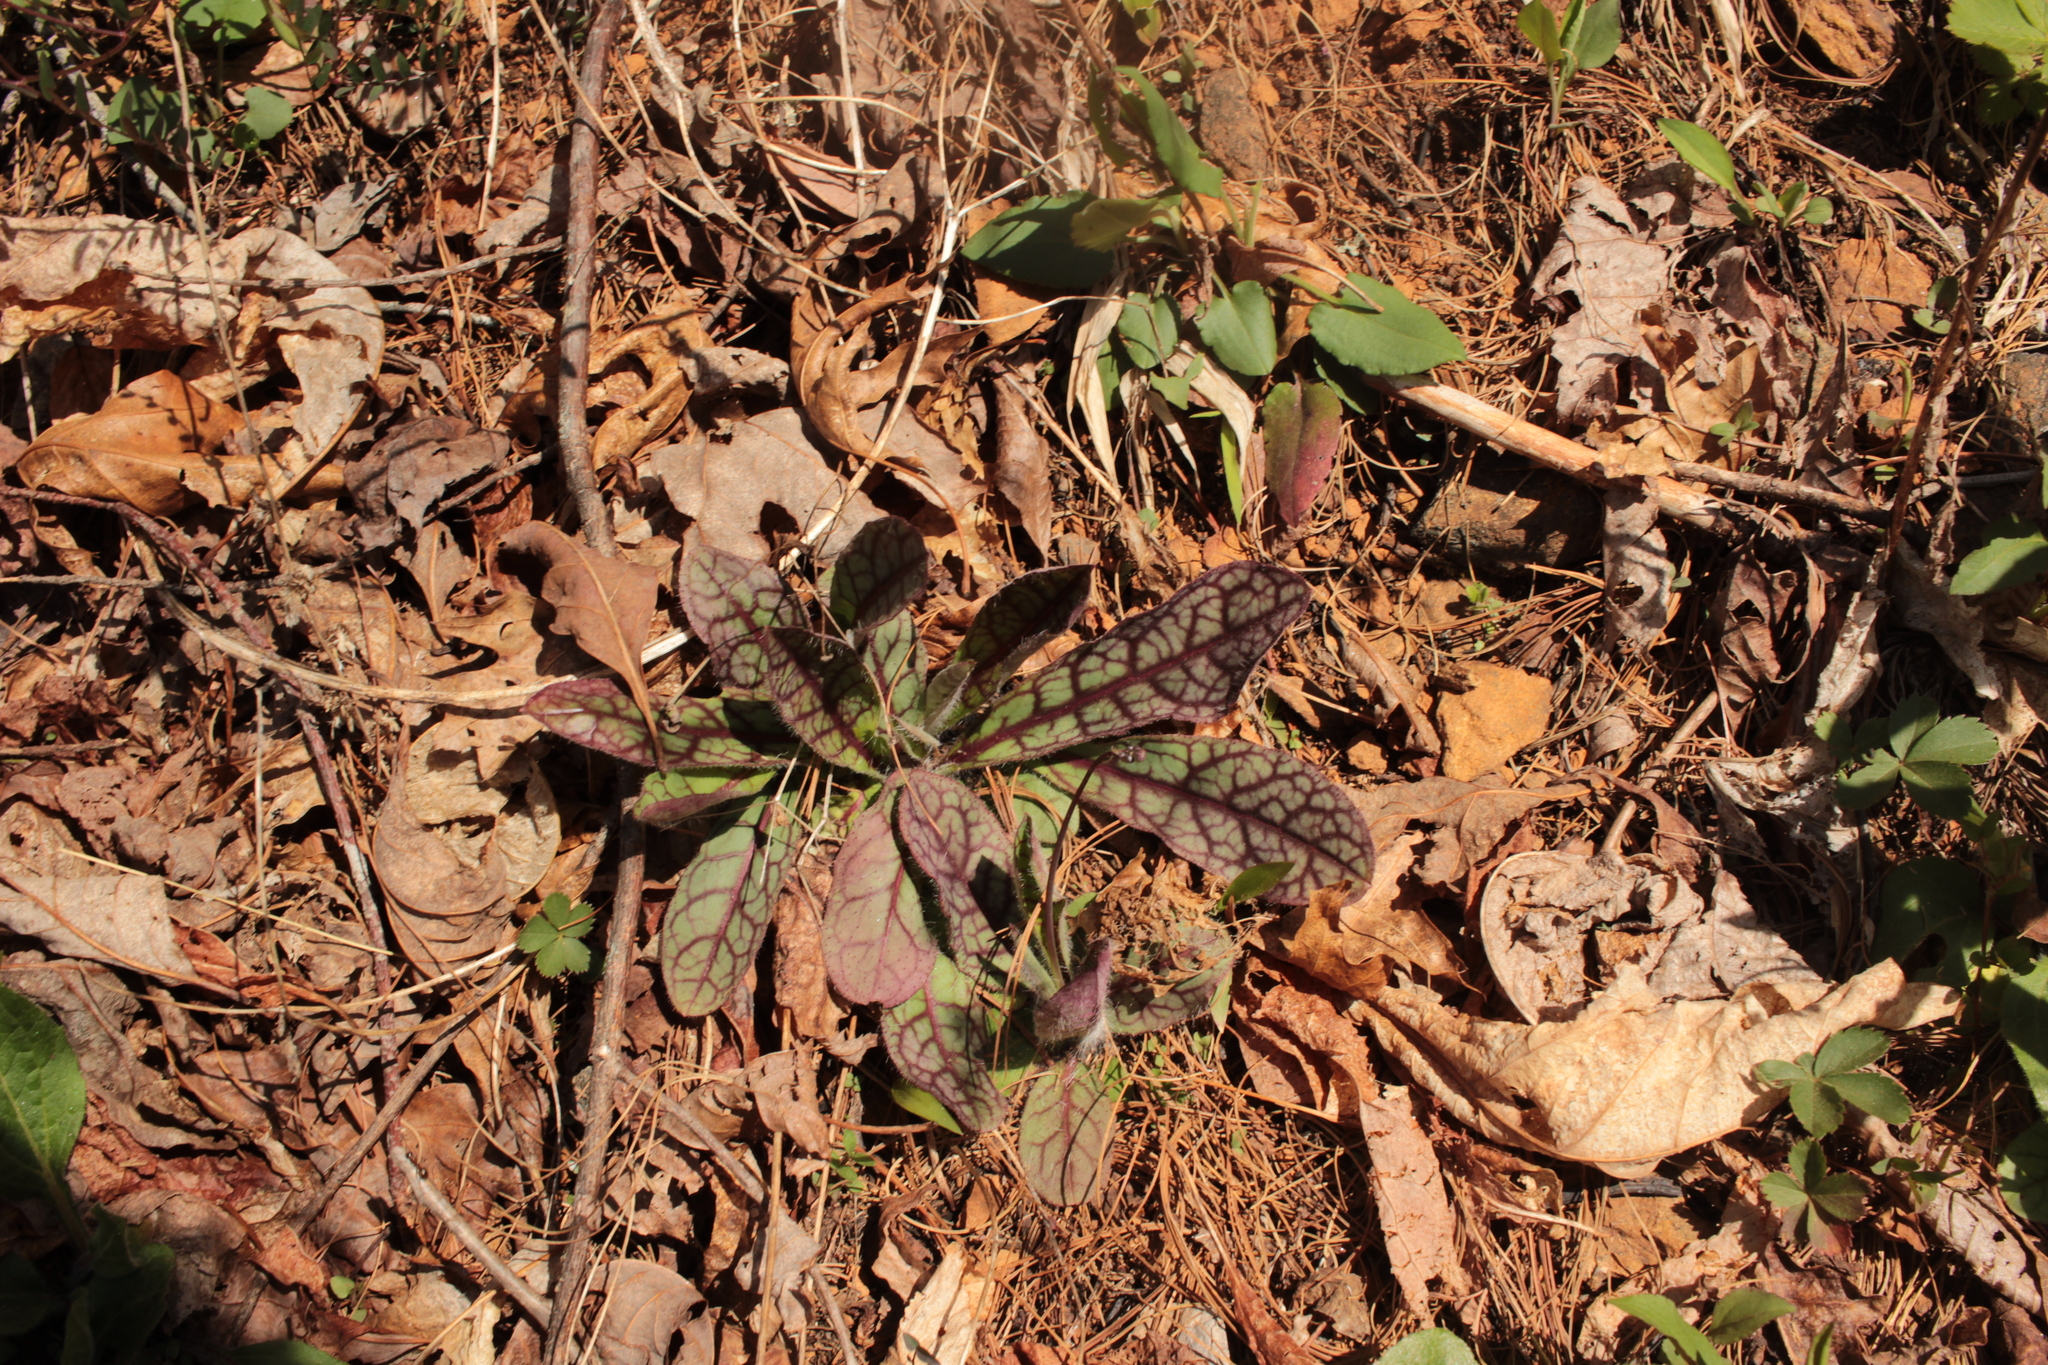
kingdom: Plantae
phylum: Tracheophyta
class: Magnoliopsida
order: Asterales
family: Asteraceae
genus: Hieracium
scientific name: Hieracium venosum
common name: Rattlesnake hawkweed
